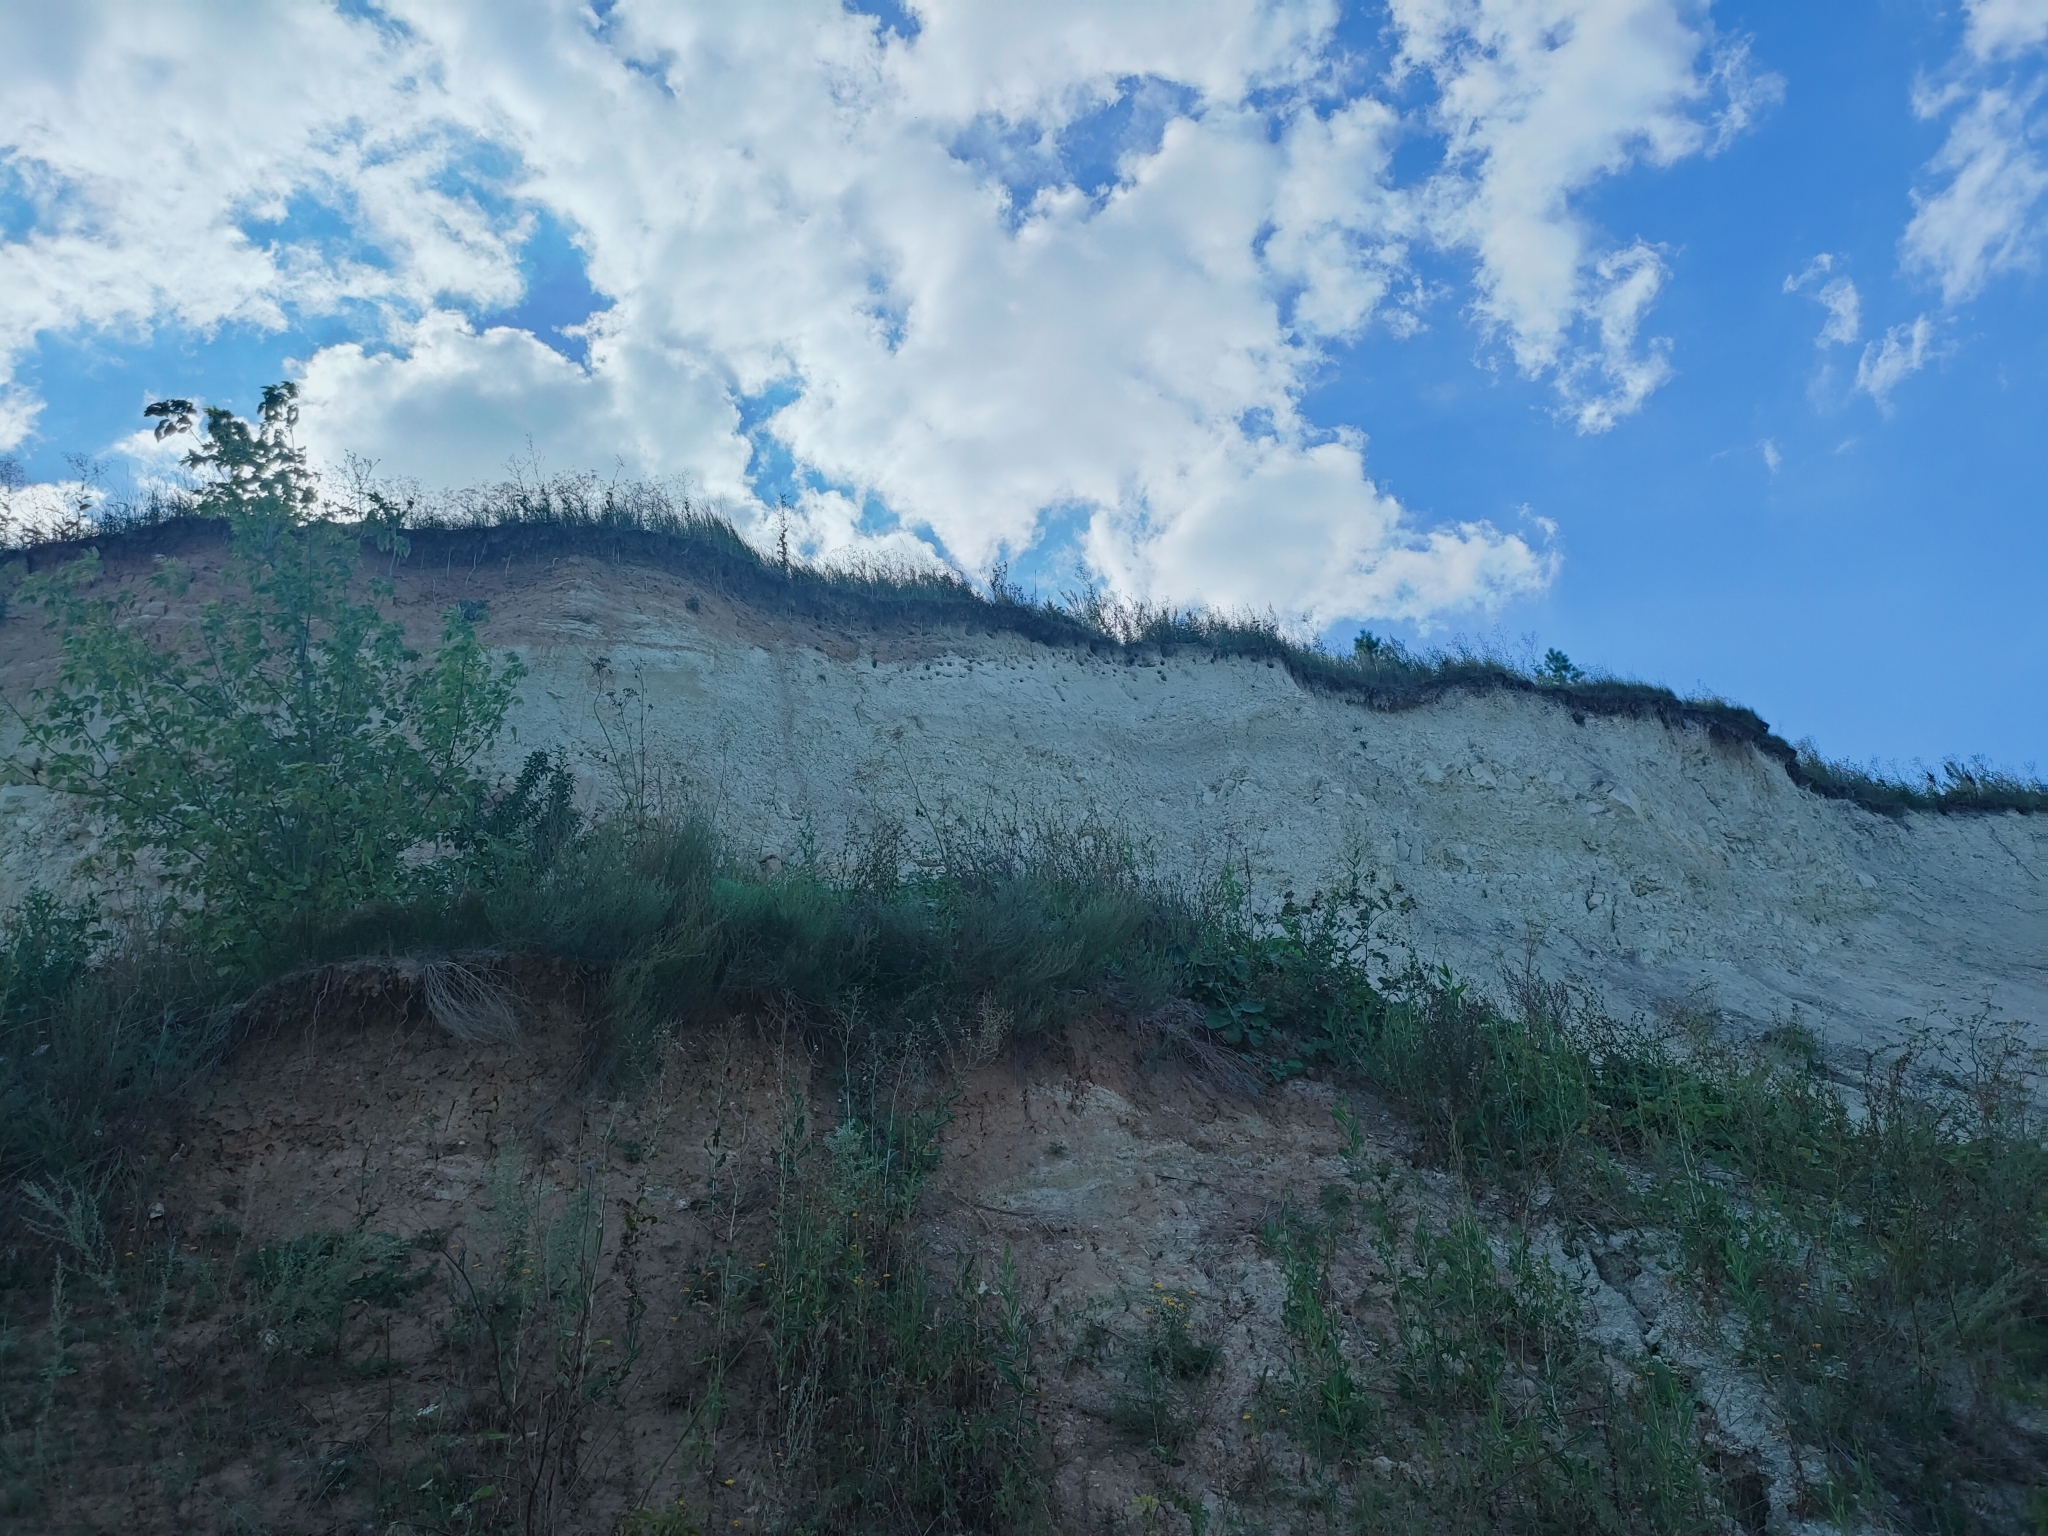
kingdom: Animalia
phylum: Chordata
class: Aves
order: Passeriformes
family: Hirundinidae
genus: Riparia
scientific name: Riparia riparia
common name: Sand martin
